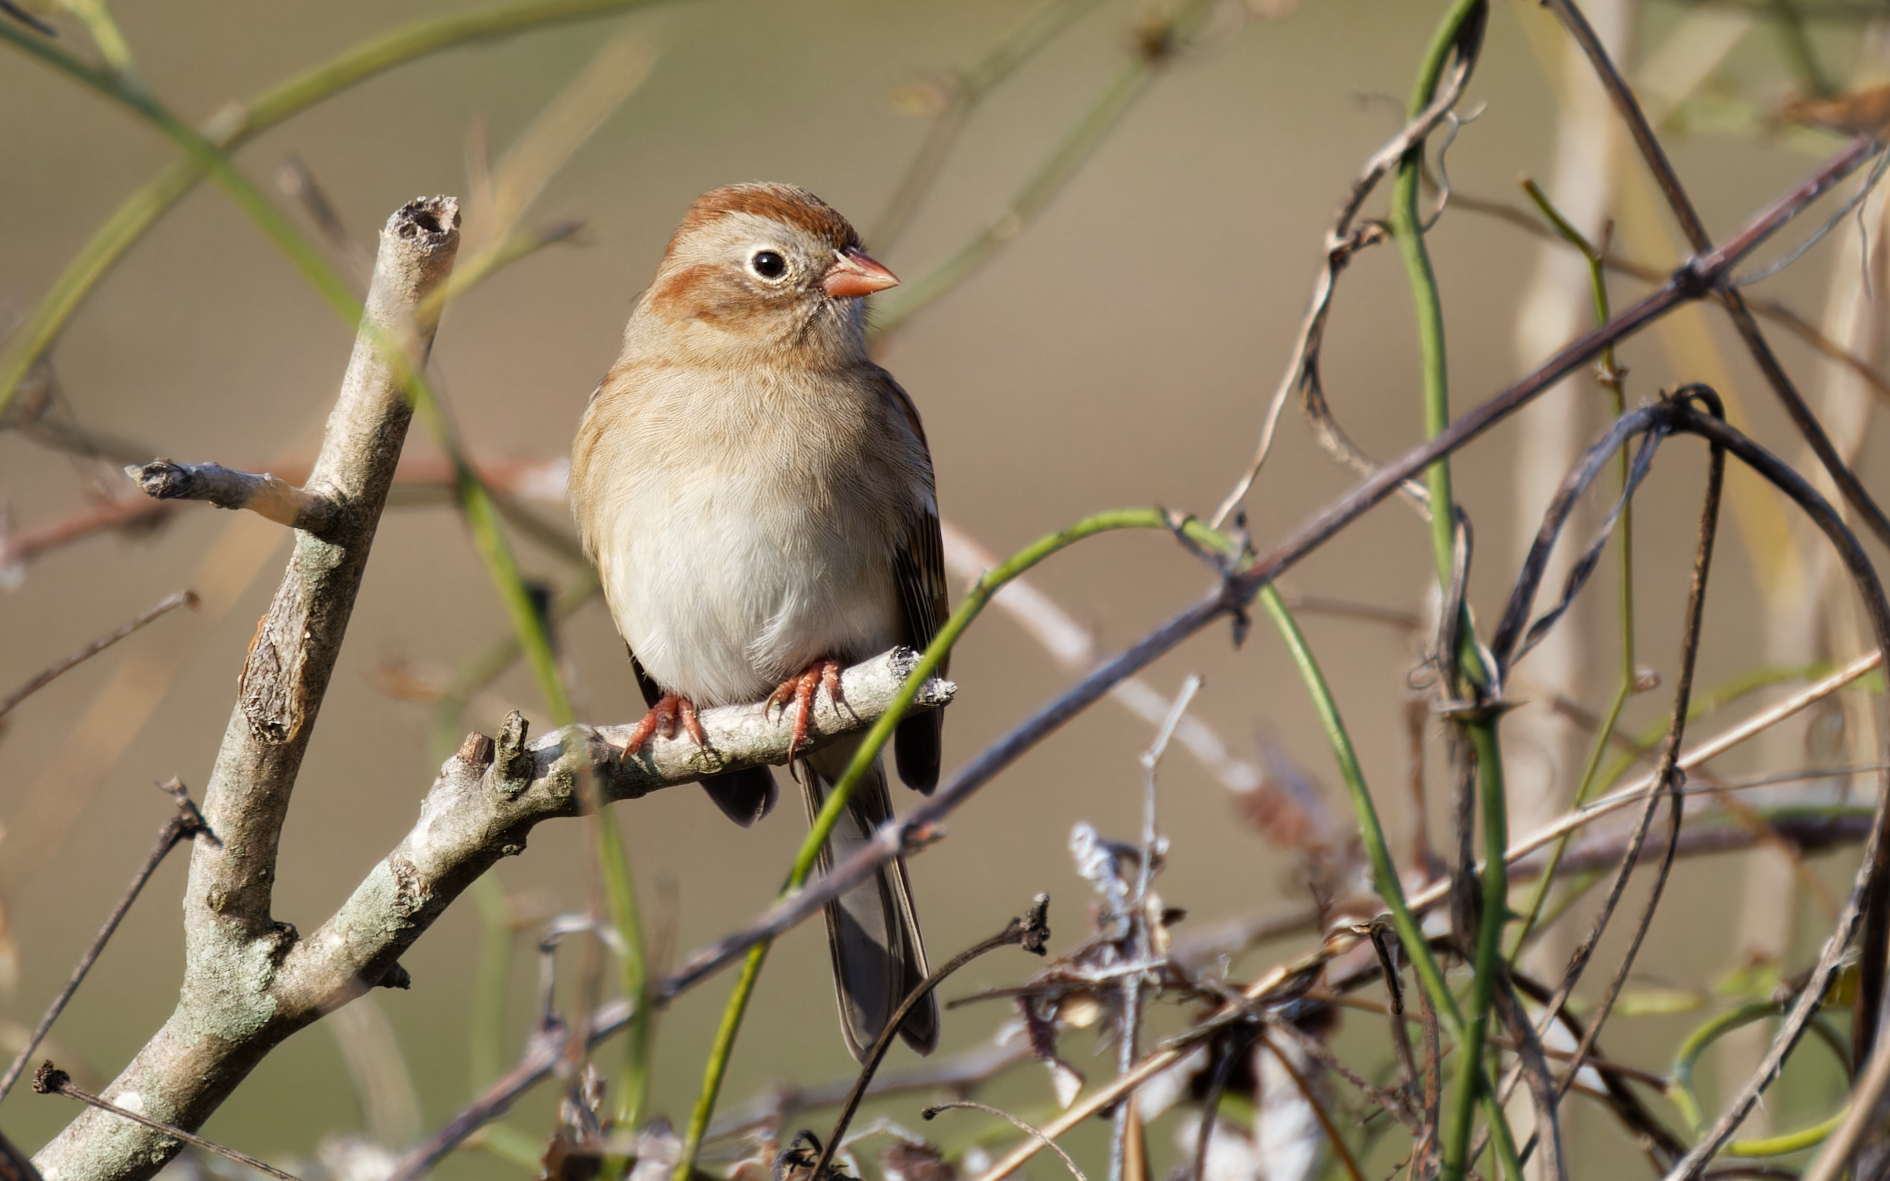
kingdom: Animalia
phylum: Chordata
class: Aves
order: Passeriformes
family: Passerellidae
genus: Spizella
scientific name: Spizella pusilla
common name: Field sparrow
